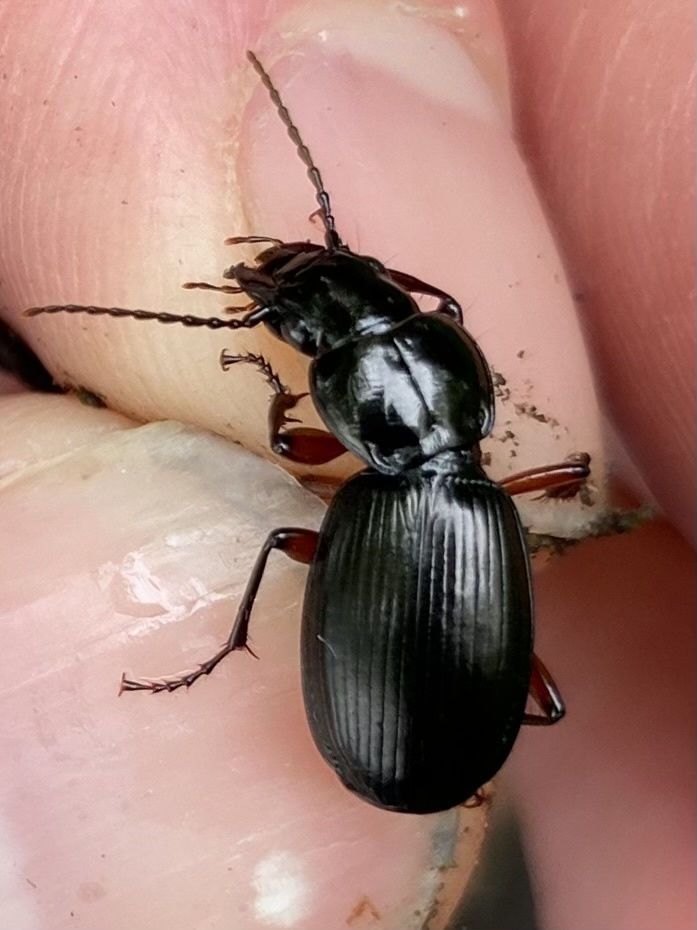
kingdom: Animalia
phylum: Arthropoda
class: Insecta
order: Coleoptera
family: Carabidae
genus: Pterostichus
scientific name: Pterostichus madidus
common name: Black clock
